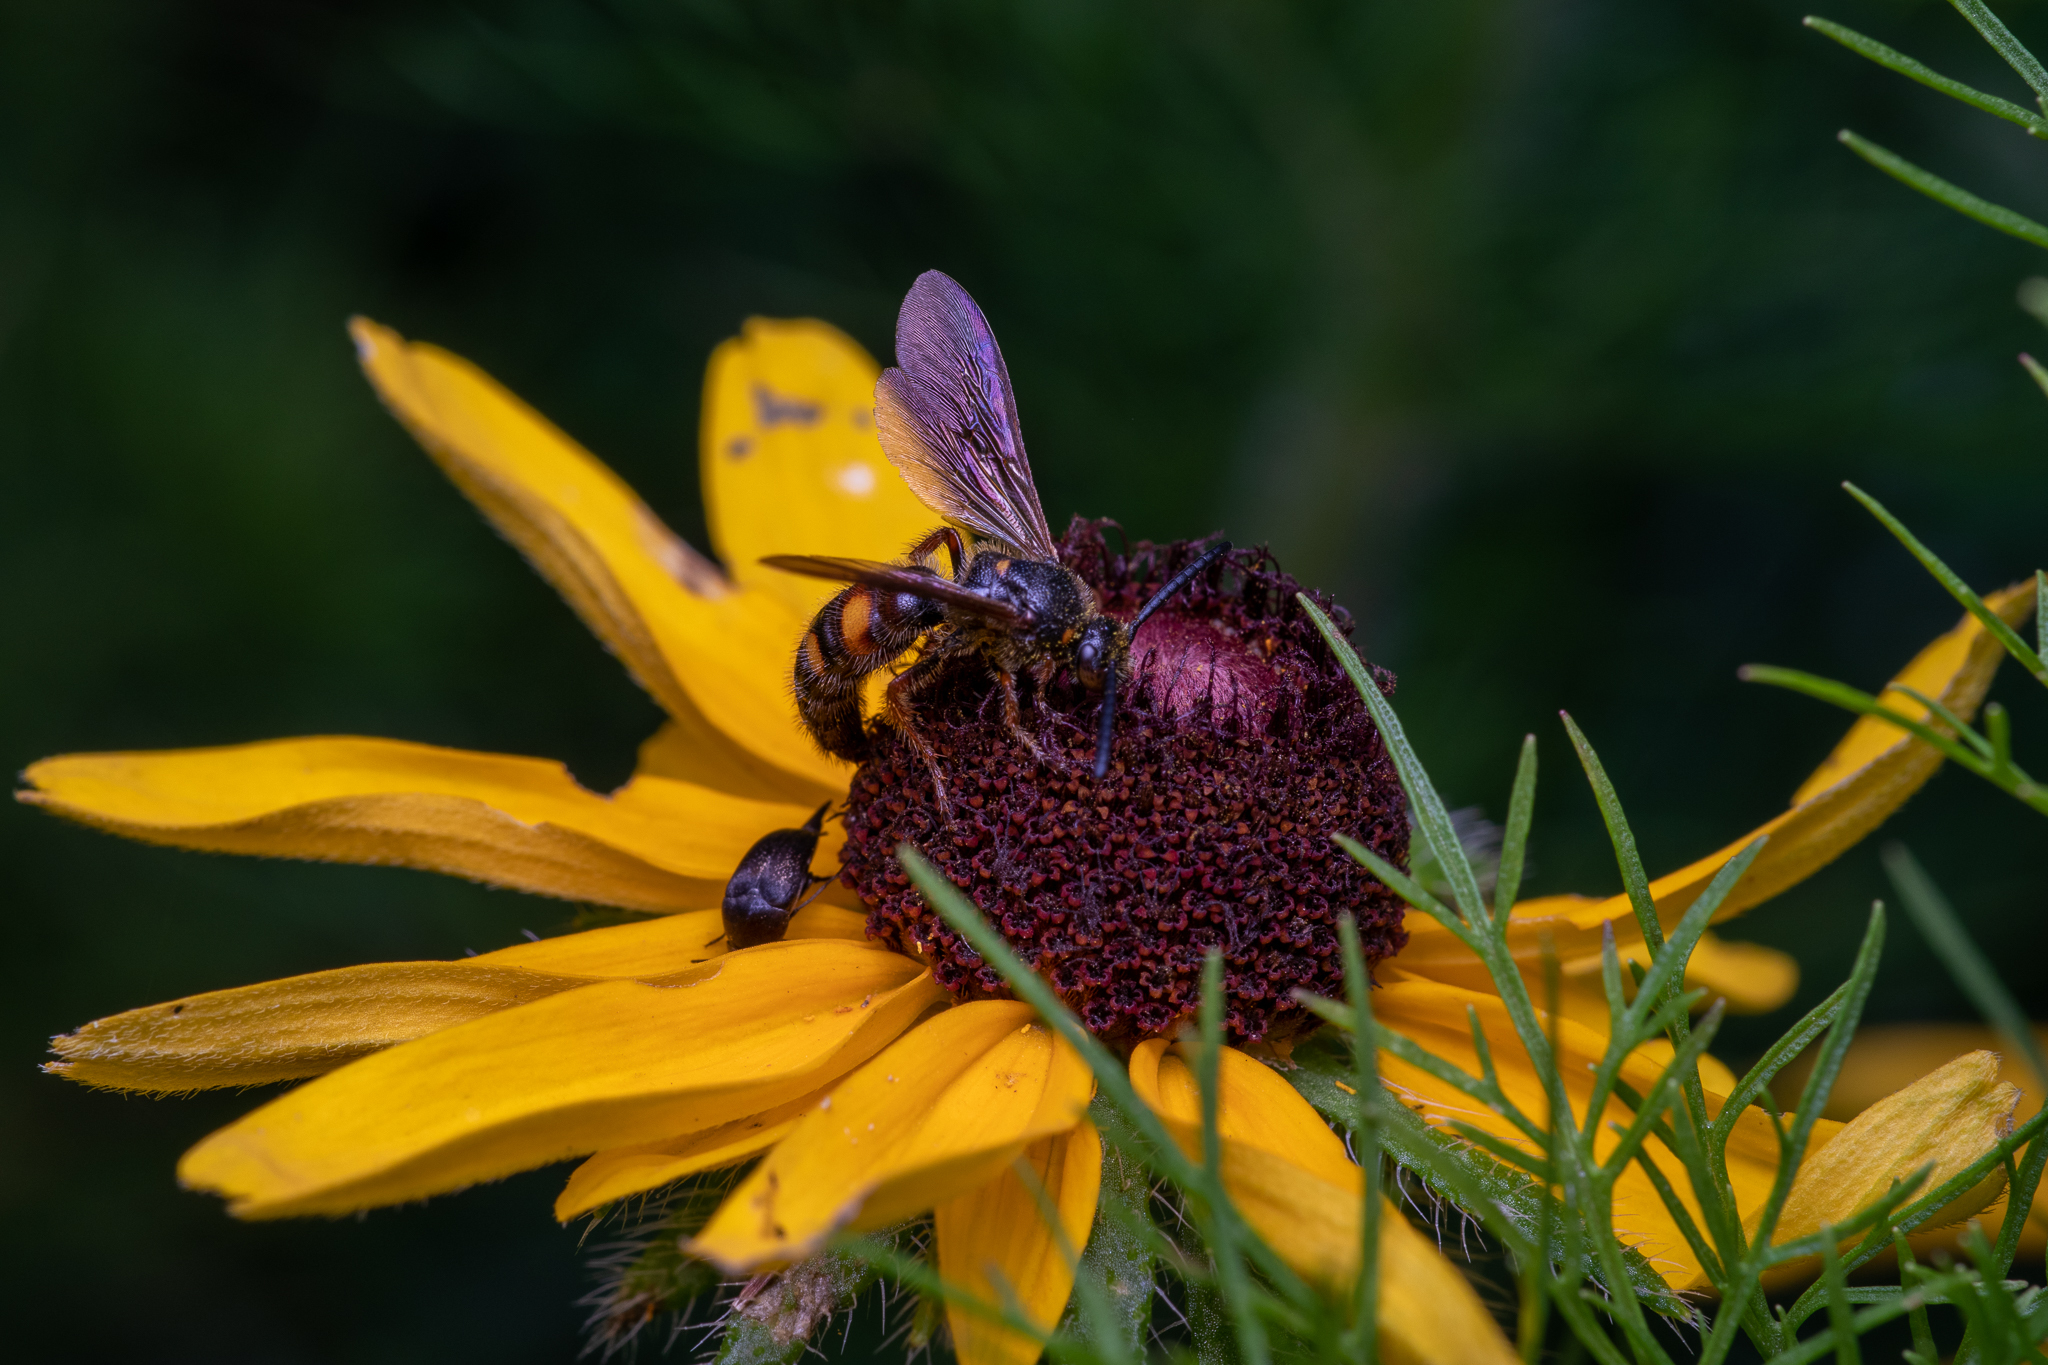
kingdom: Animalia
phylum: Arthropoda
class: Insecta
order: Hymenoptera
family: Scoliidae
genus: Scolia
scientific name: Scolia nobilitata
